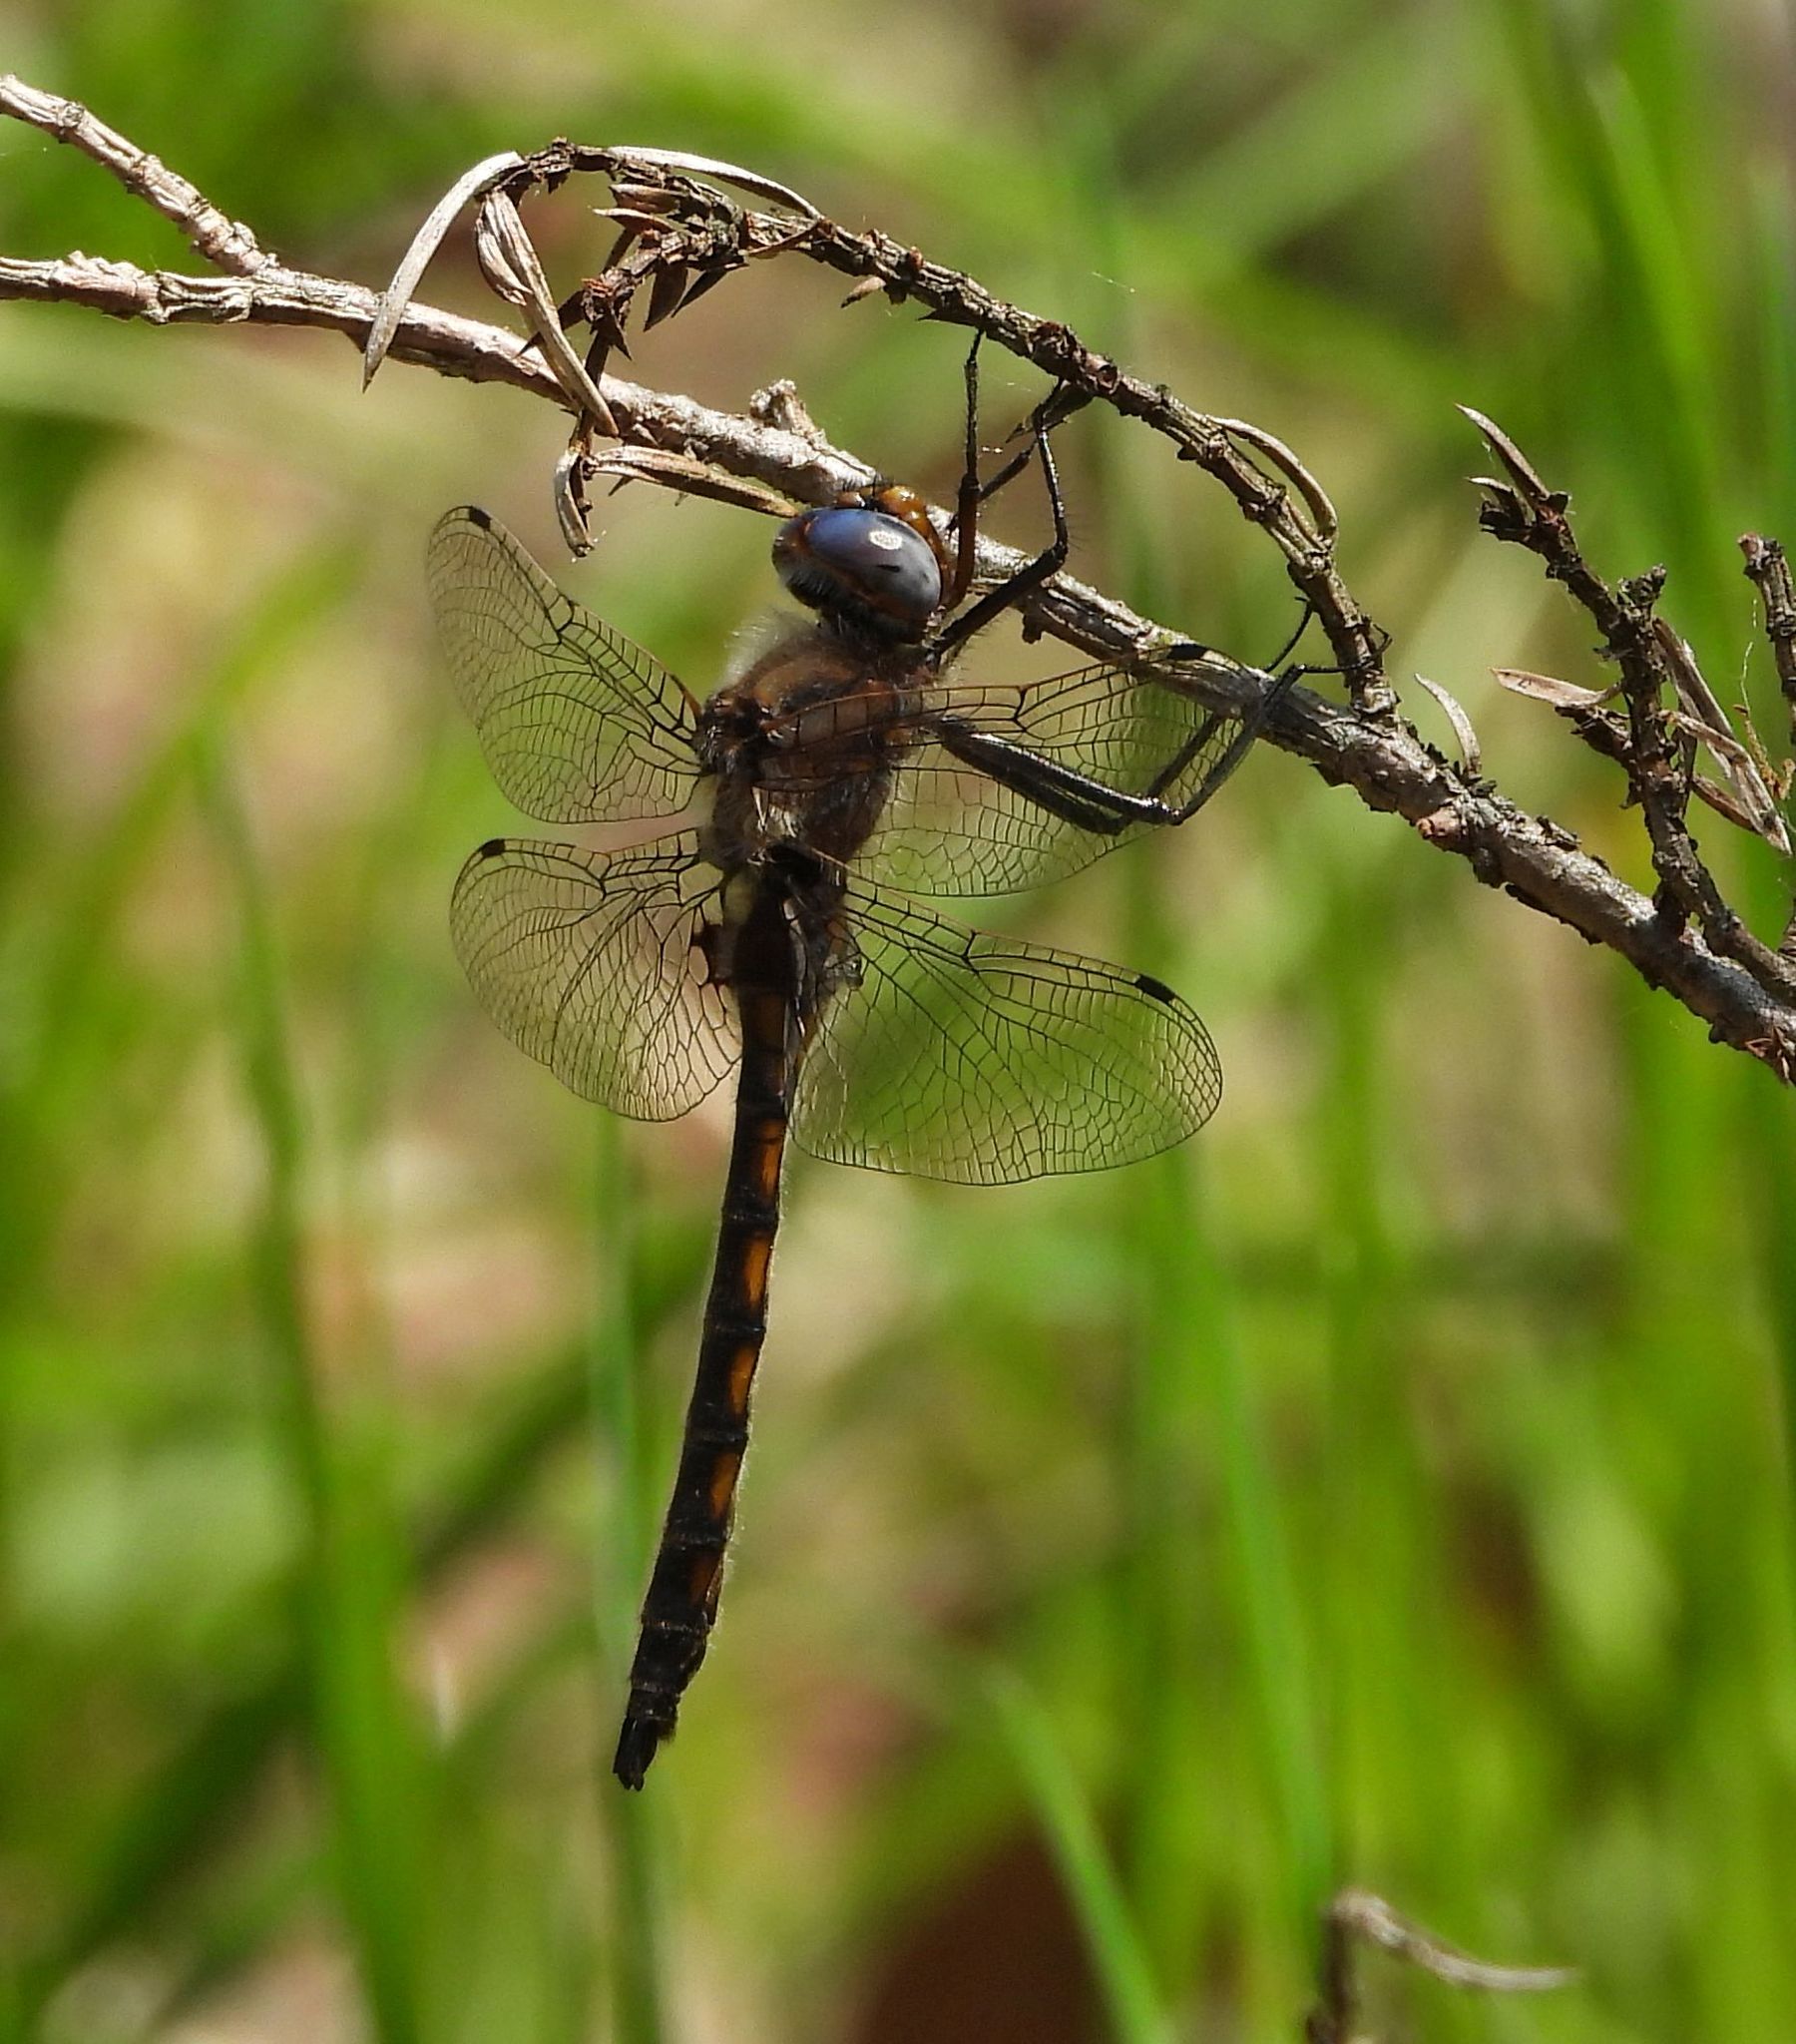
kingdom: Animalia
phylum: Arthropoda
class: Insecta
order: Odonata
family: Corduliidae
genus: Epitheca
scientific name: Epitheca canis
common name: Beaverpond baskettail
